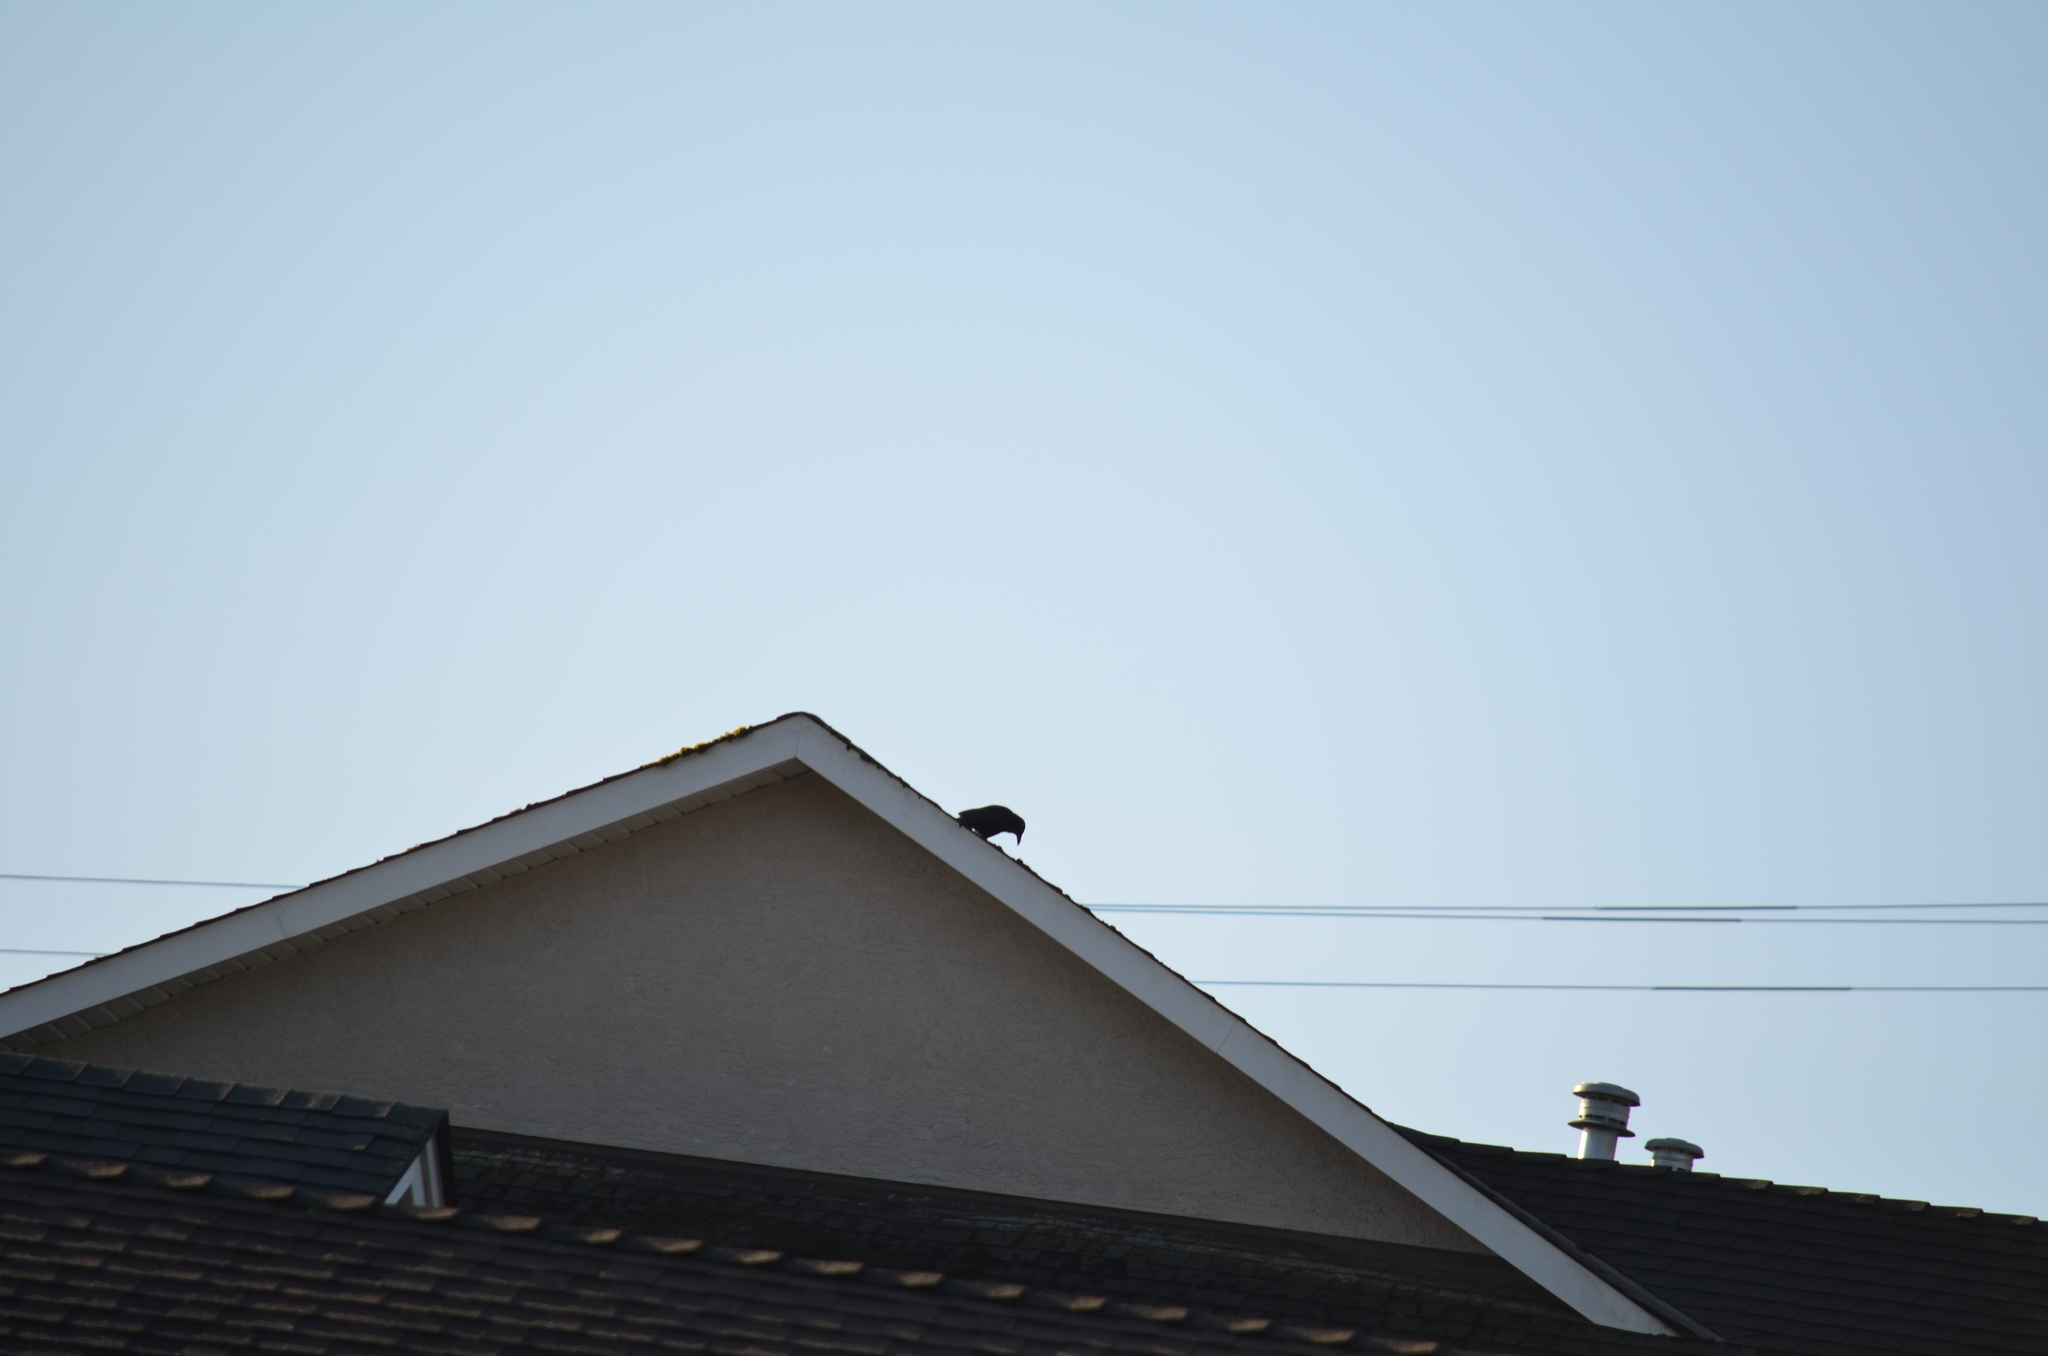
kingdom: Animalia
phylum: Chordata
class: Aves
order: Passeriformes
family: Corvidae
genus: Corvus
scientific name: Corvus brachyrhynchos
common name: American crow
